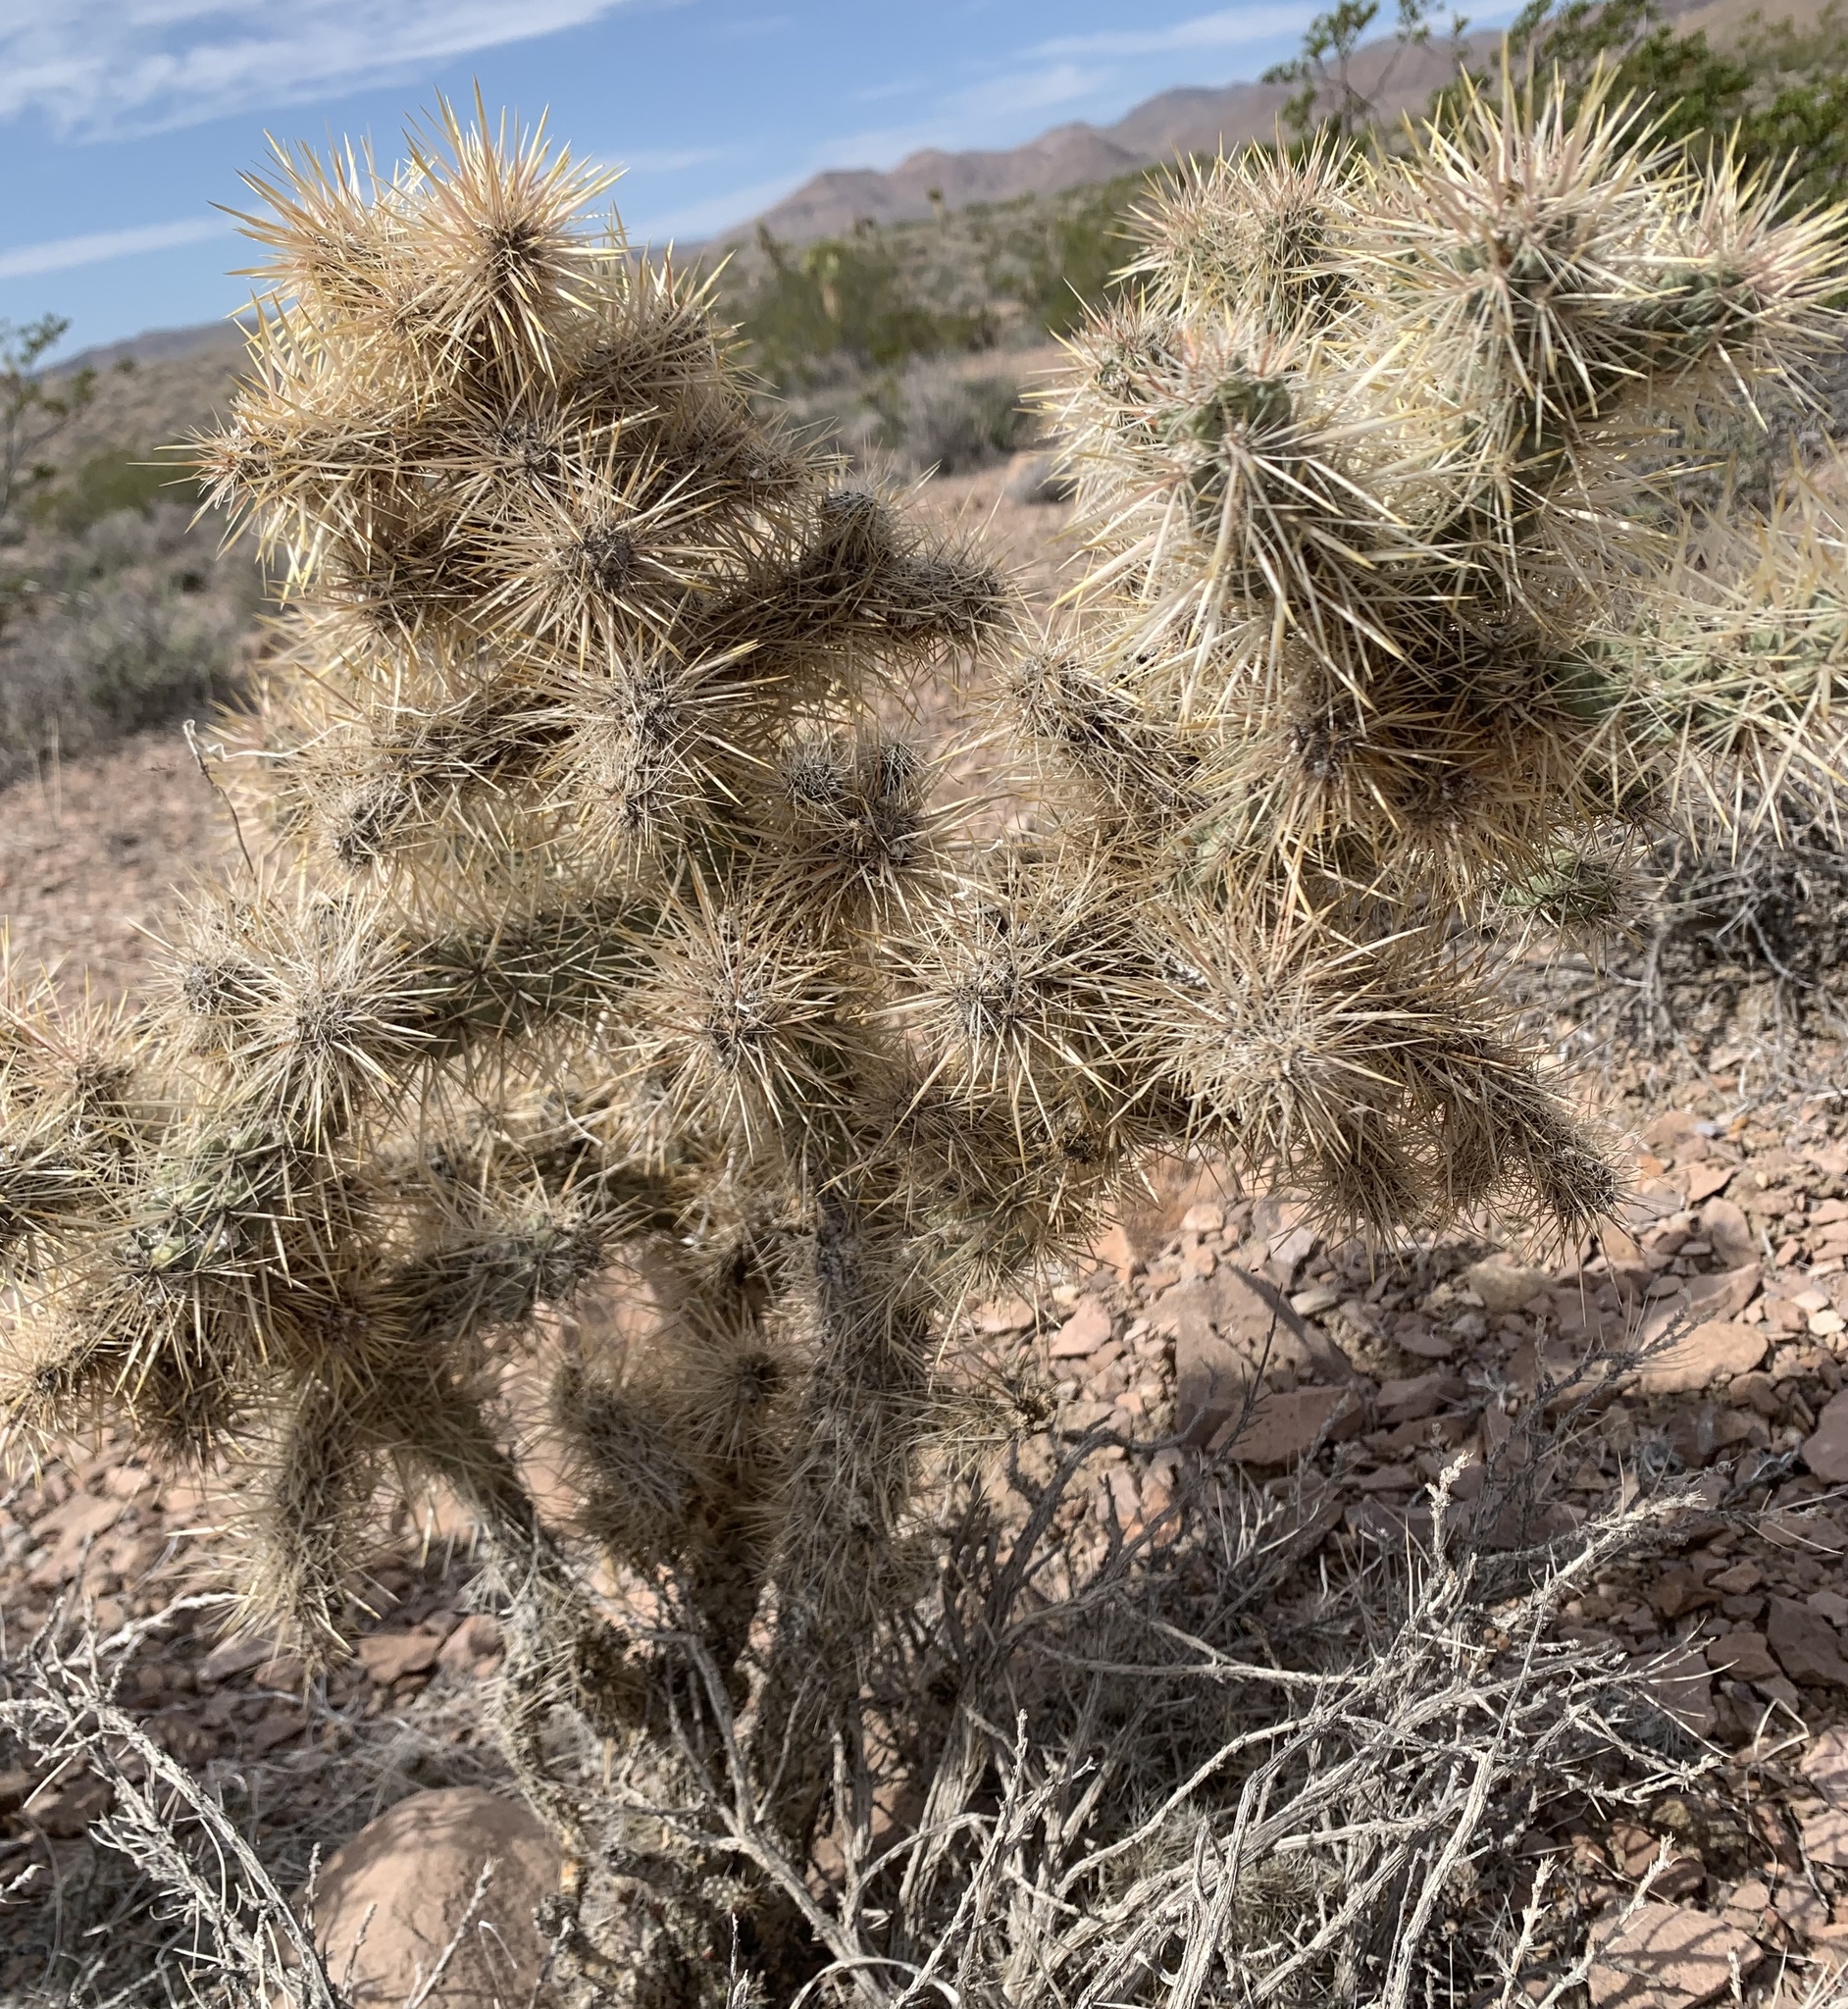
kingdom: Plantae
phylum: Tracheophyta
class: Magnoliopsida
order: Caryophyllales
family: Cactaceae
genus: Cylindropuntia
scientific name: Cylindropuntia echinocarpa
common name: Ground cholla
